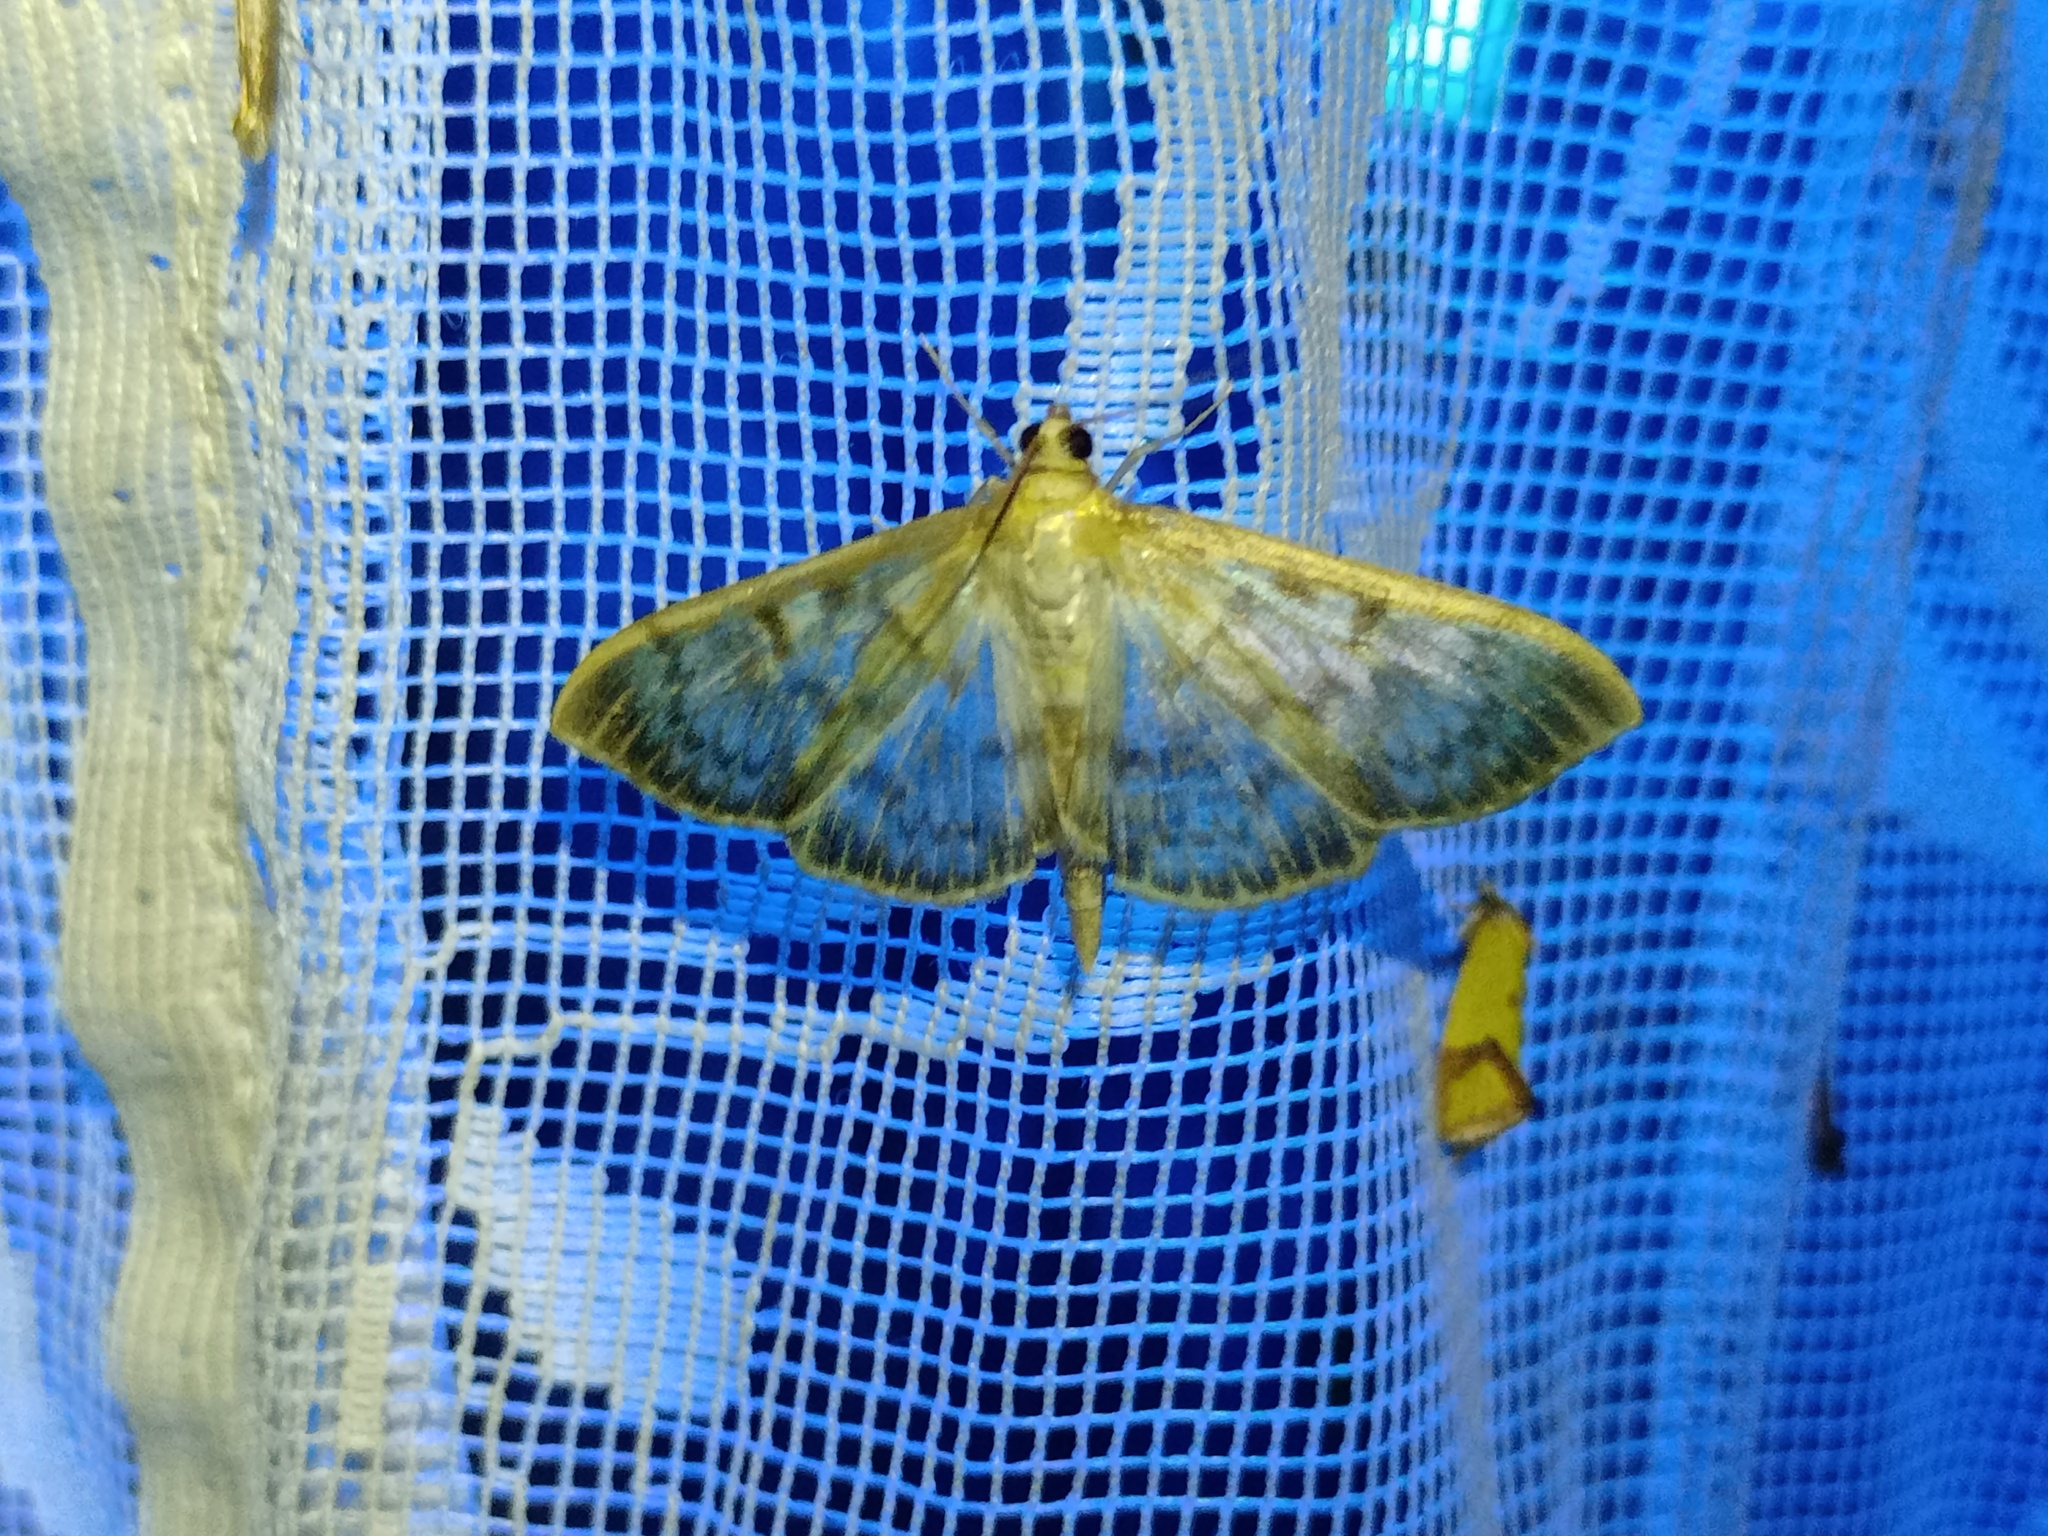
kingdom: Animalia
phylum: Arthropoda
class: Insecta
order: Lepidoptera
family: Crambidae
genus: Patania
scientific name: Patania ruralis
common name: Mother of pearl
